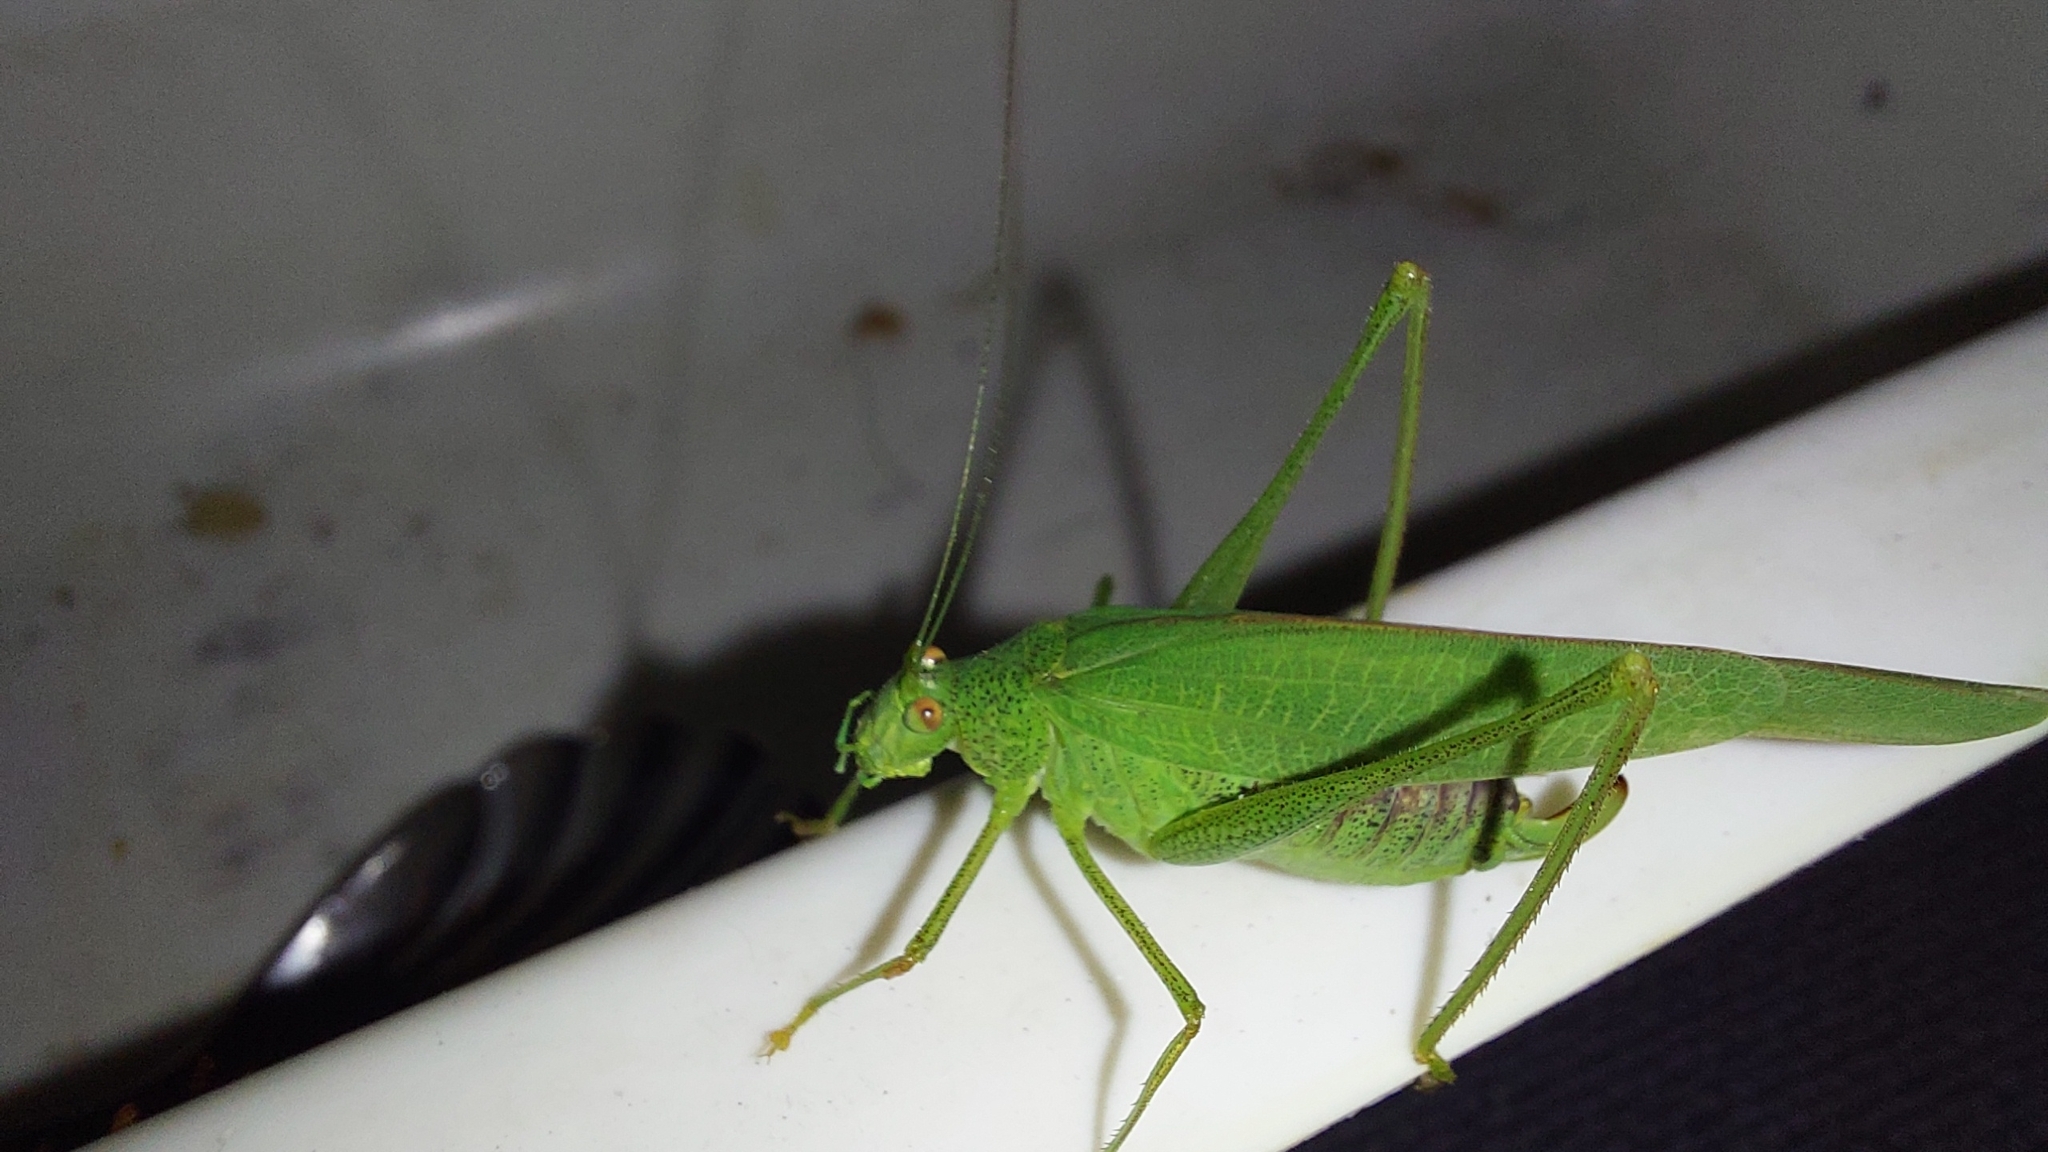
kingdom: Animalia
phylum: Arthropoda
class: Insecta
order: Orthoptera
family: Tettigoniidae
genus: Phaneroptera
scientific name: Phaneroptera nana
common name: Southern sickle bush-cricket
